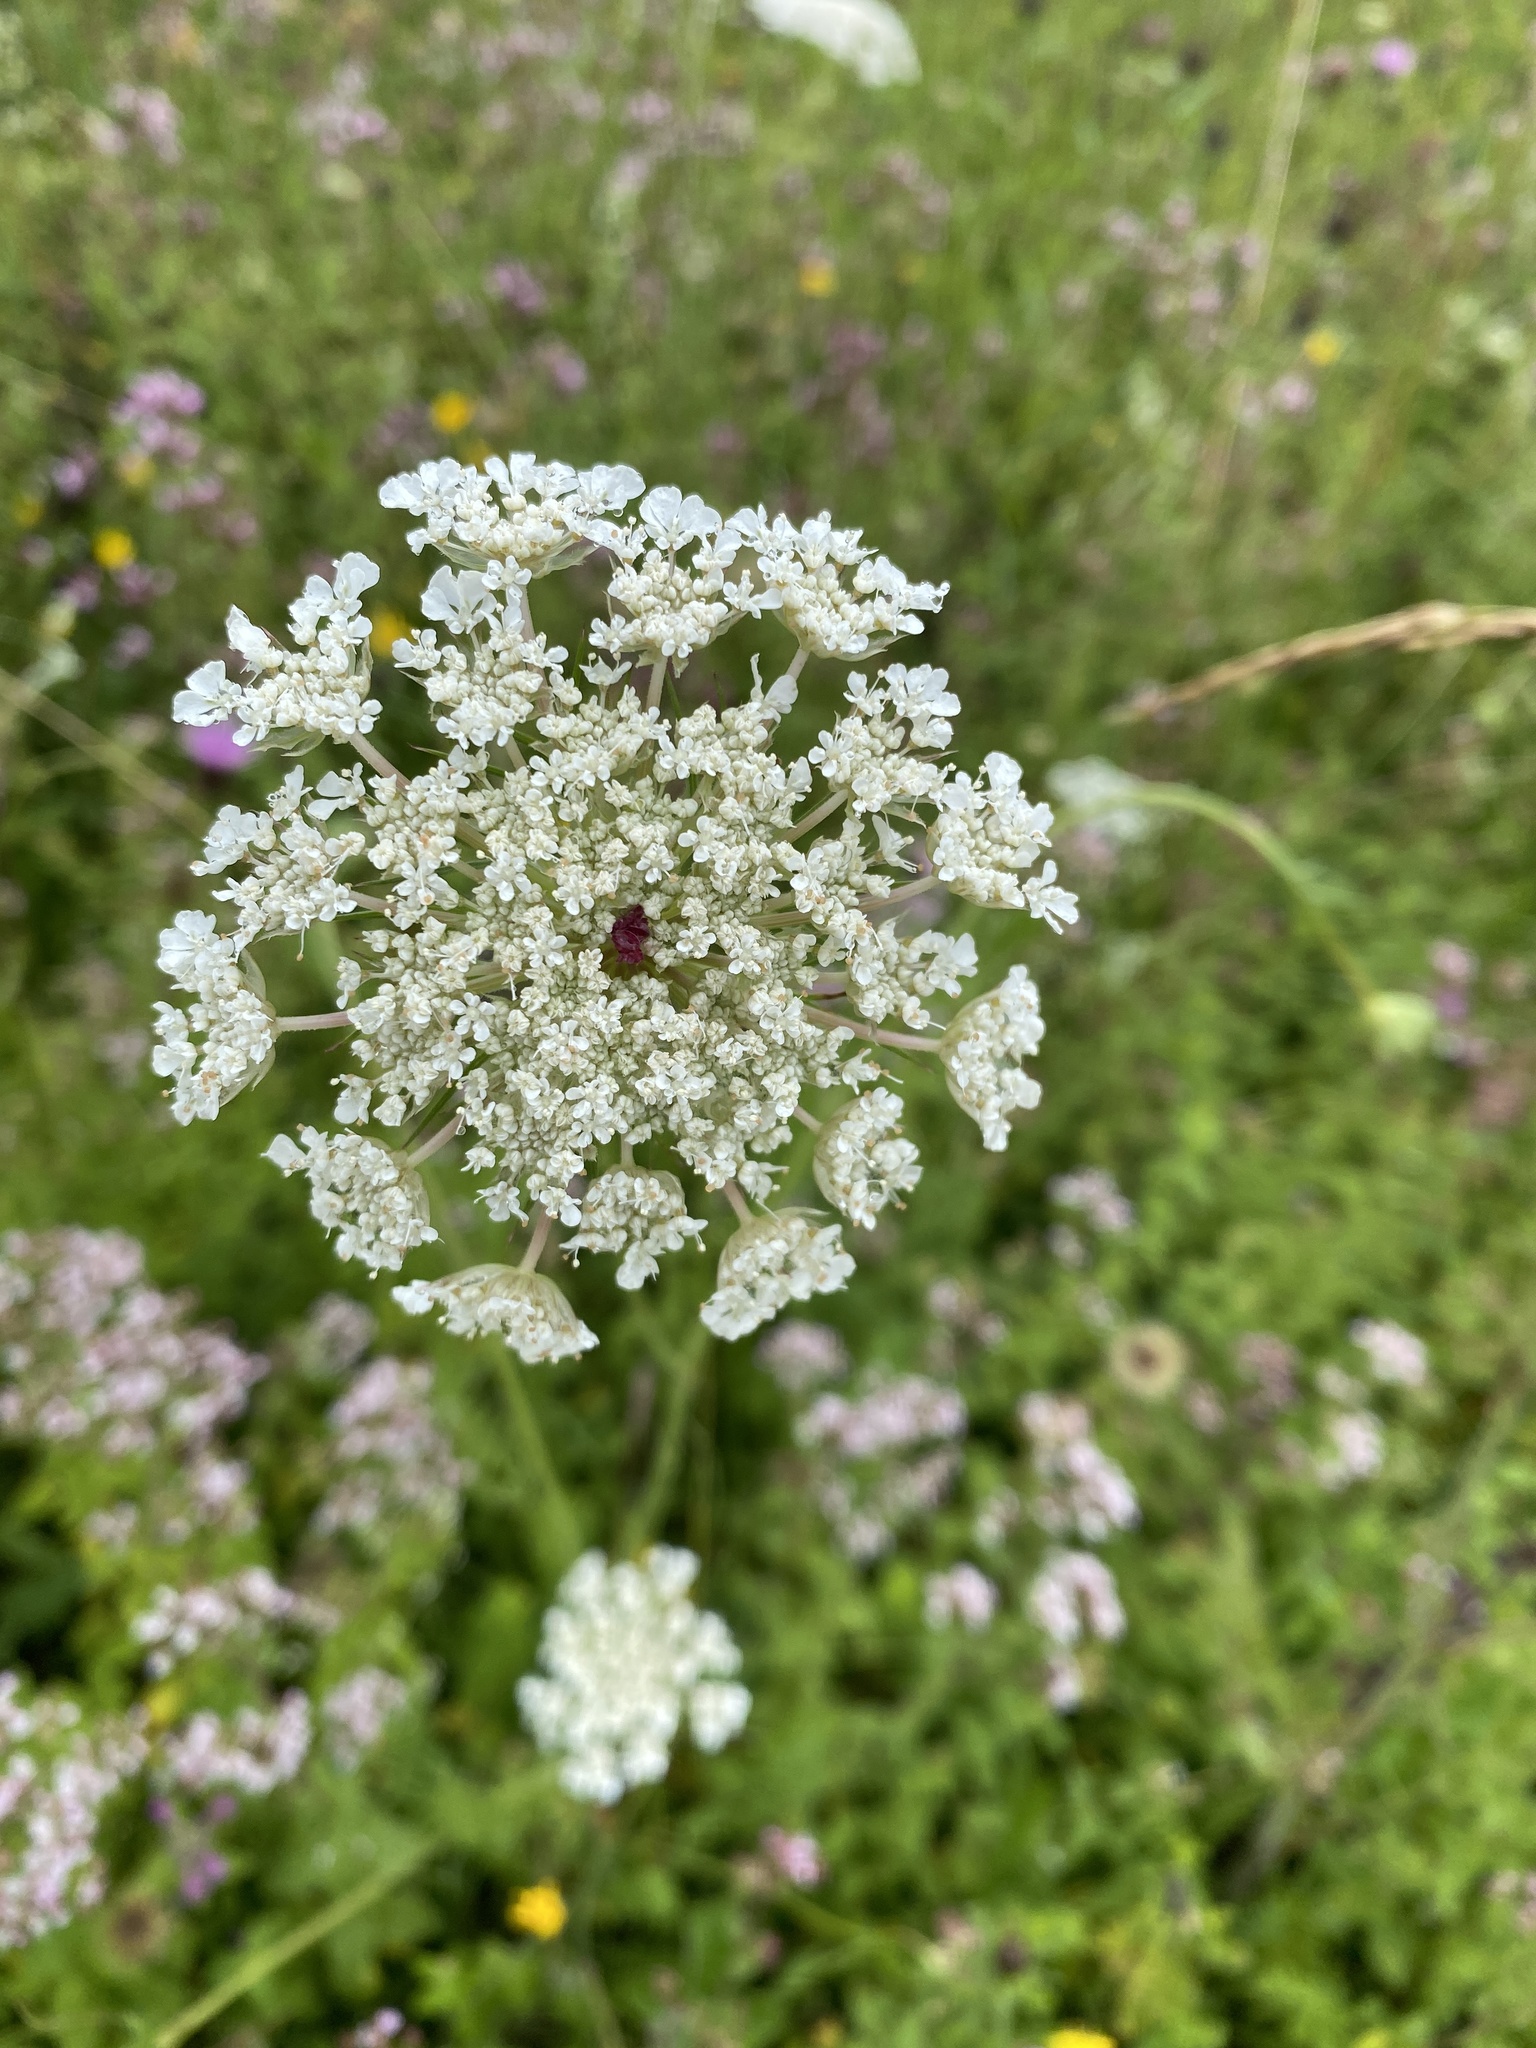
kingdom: Plantae
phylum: Tracheophyta
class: Magnoliopsida
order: Apiales
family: Apiaceae
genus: Daucus
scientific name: Daucus carota
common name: Wild carrot
